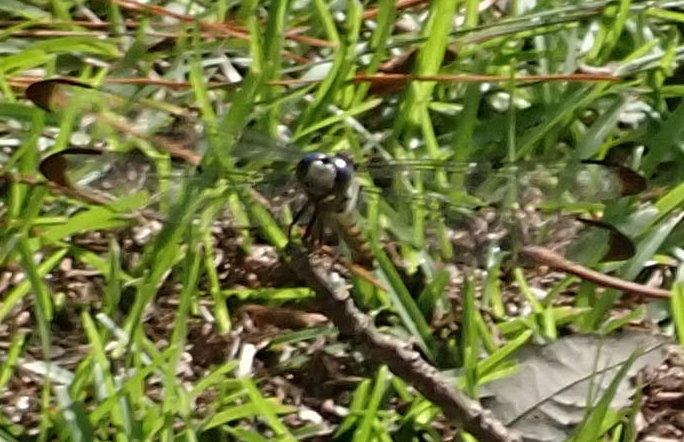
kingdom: Animalia
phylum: Arthropoda
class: Insecta
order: Odonata
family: Libellulidae
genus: Libellula
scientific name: Libellula vibrans
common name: Great blue skimmer
